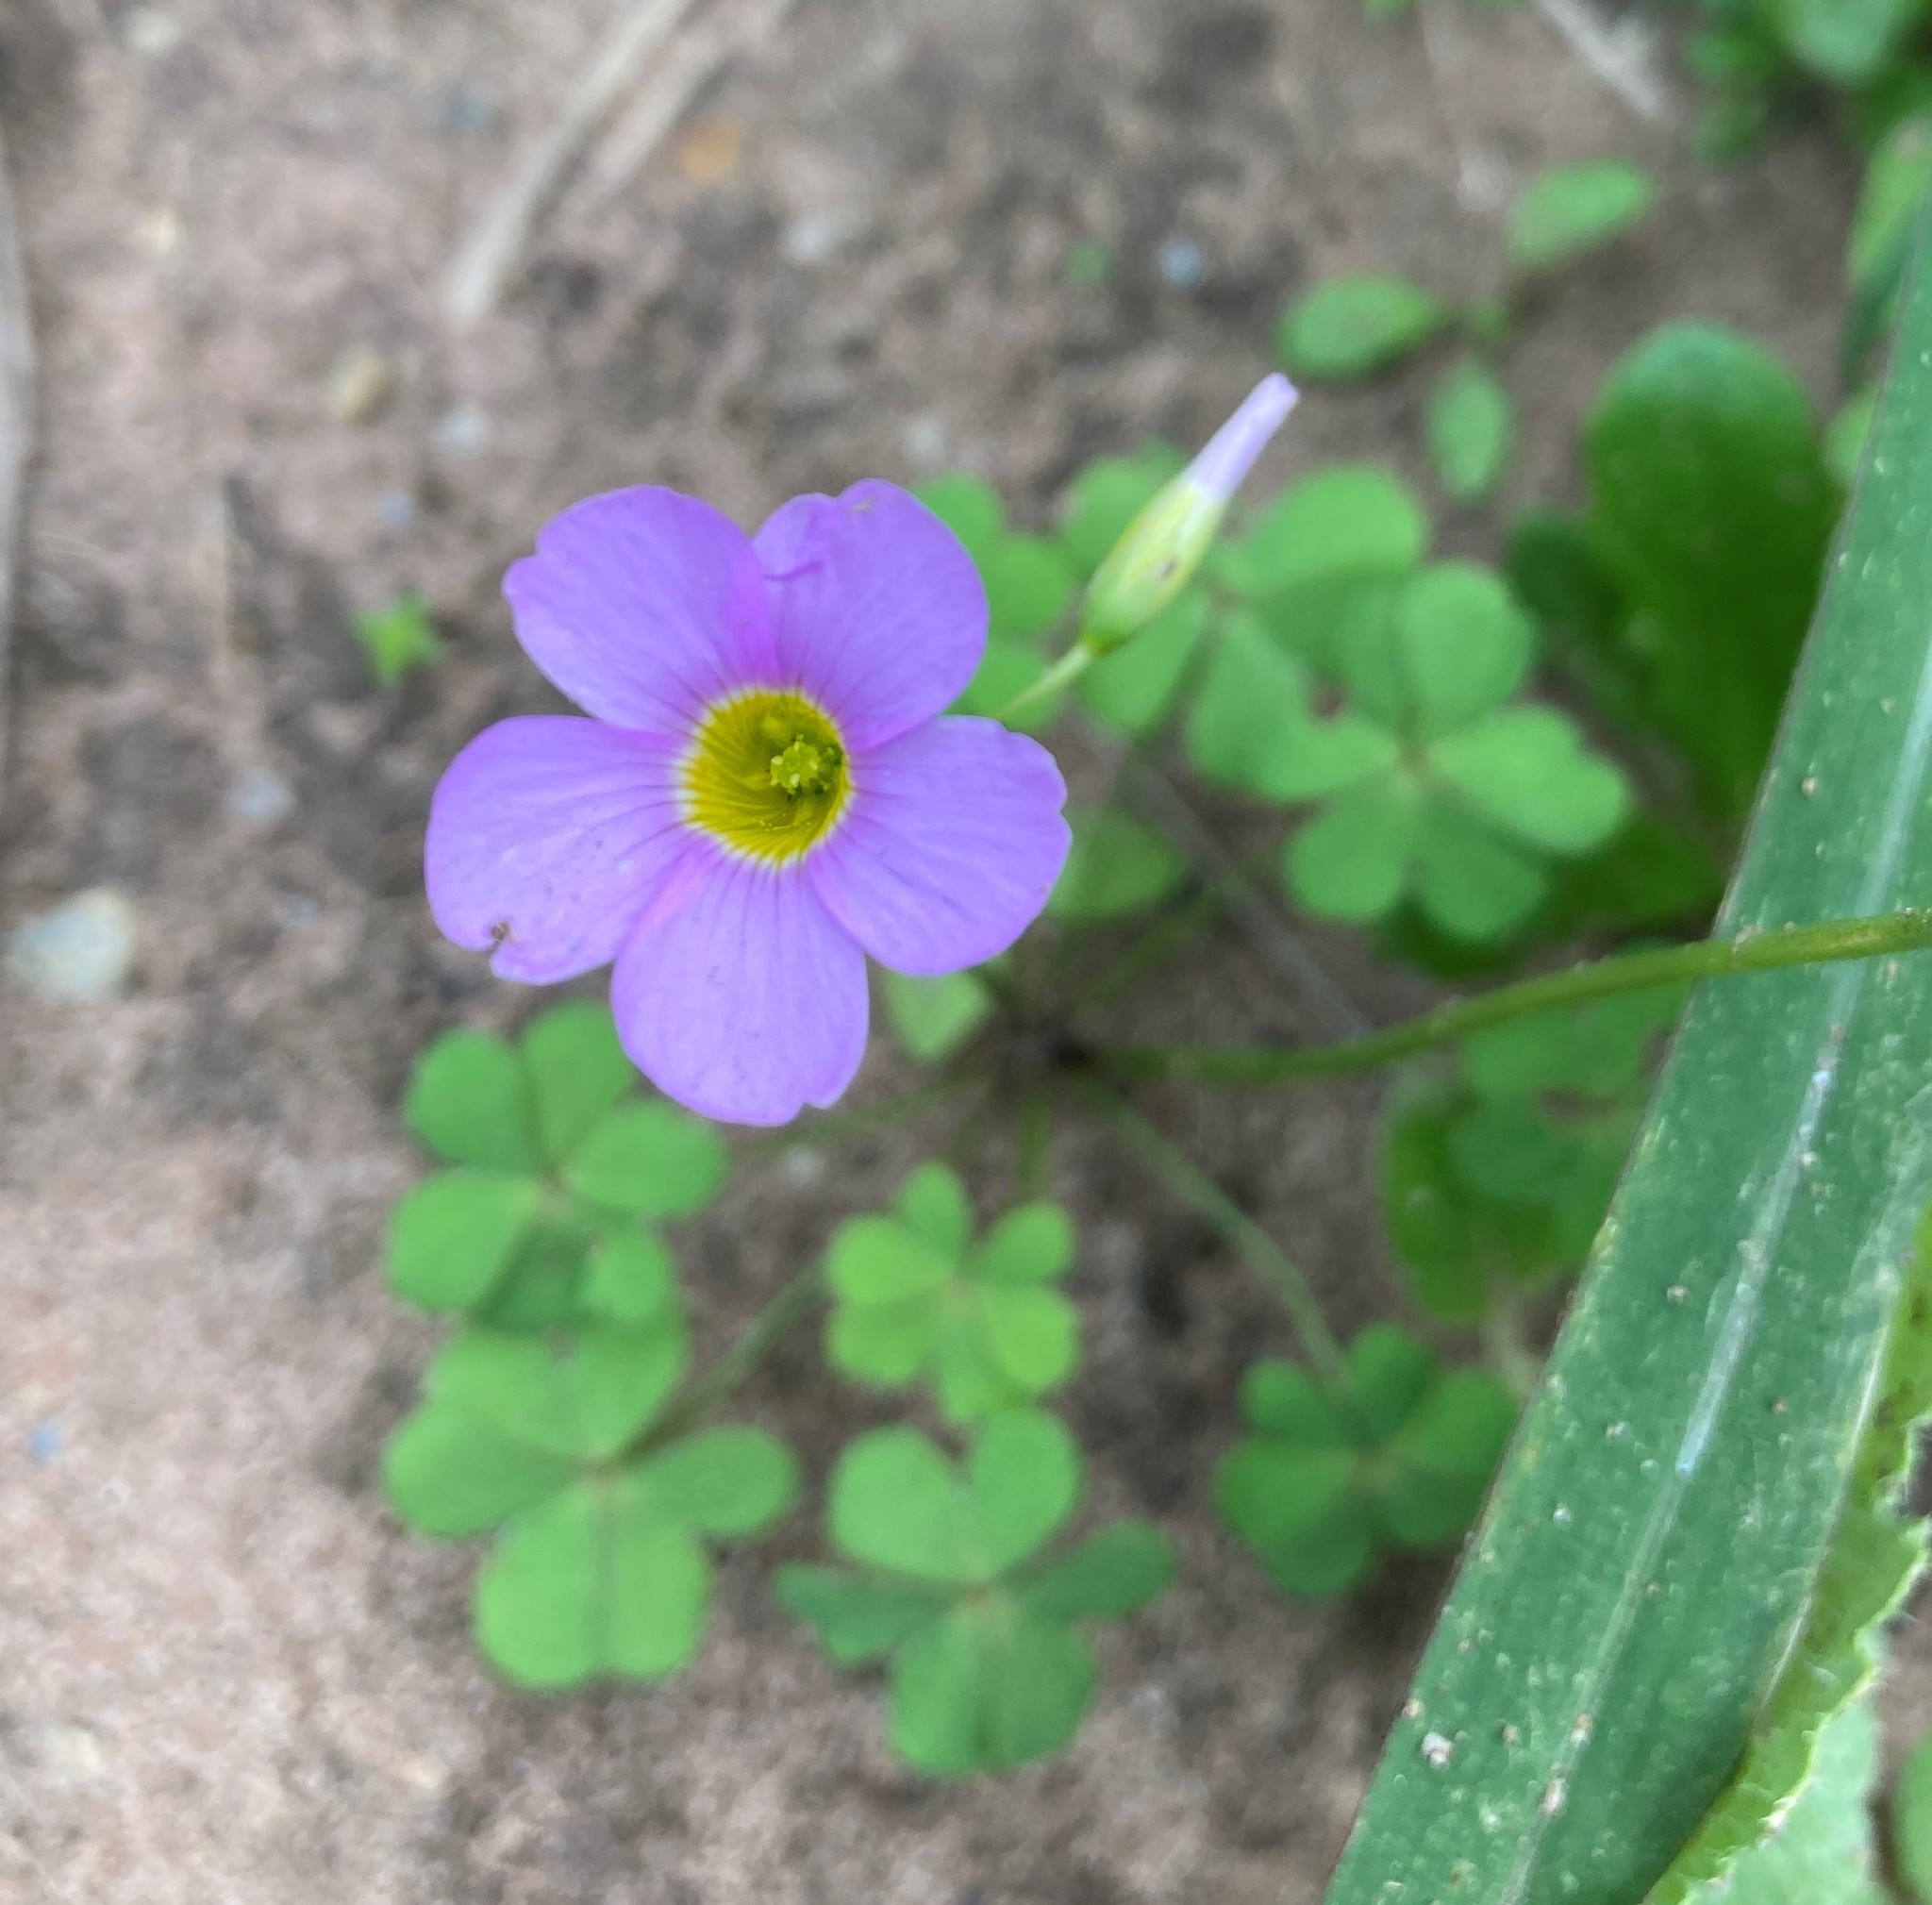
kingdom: Plantae
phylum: Tracheophyta
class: Magnoliopsida
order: Oxalidales
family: Oxalidaceae
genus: Oxalis
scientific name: Oxalis caprina
